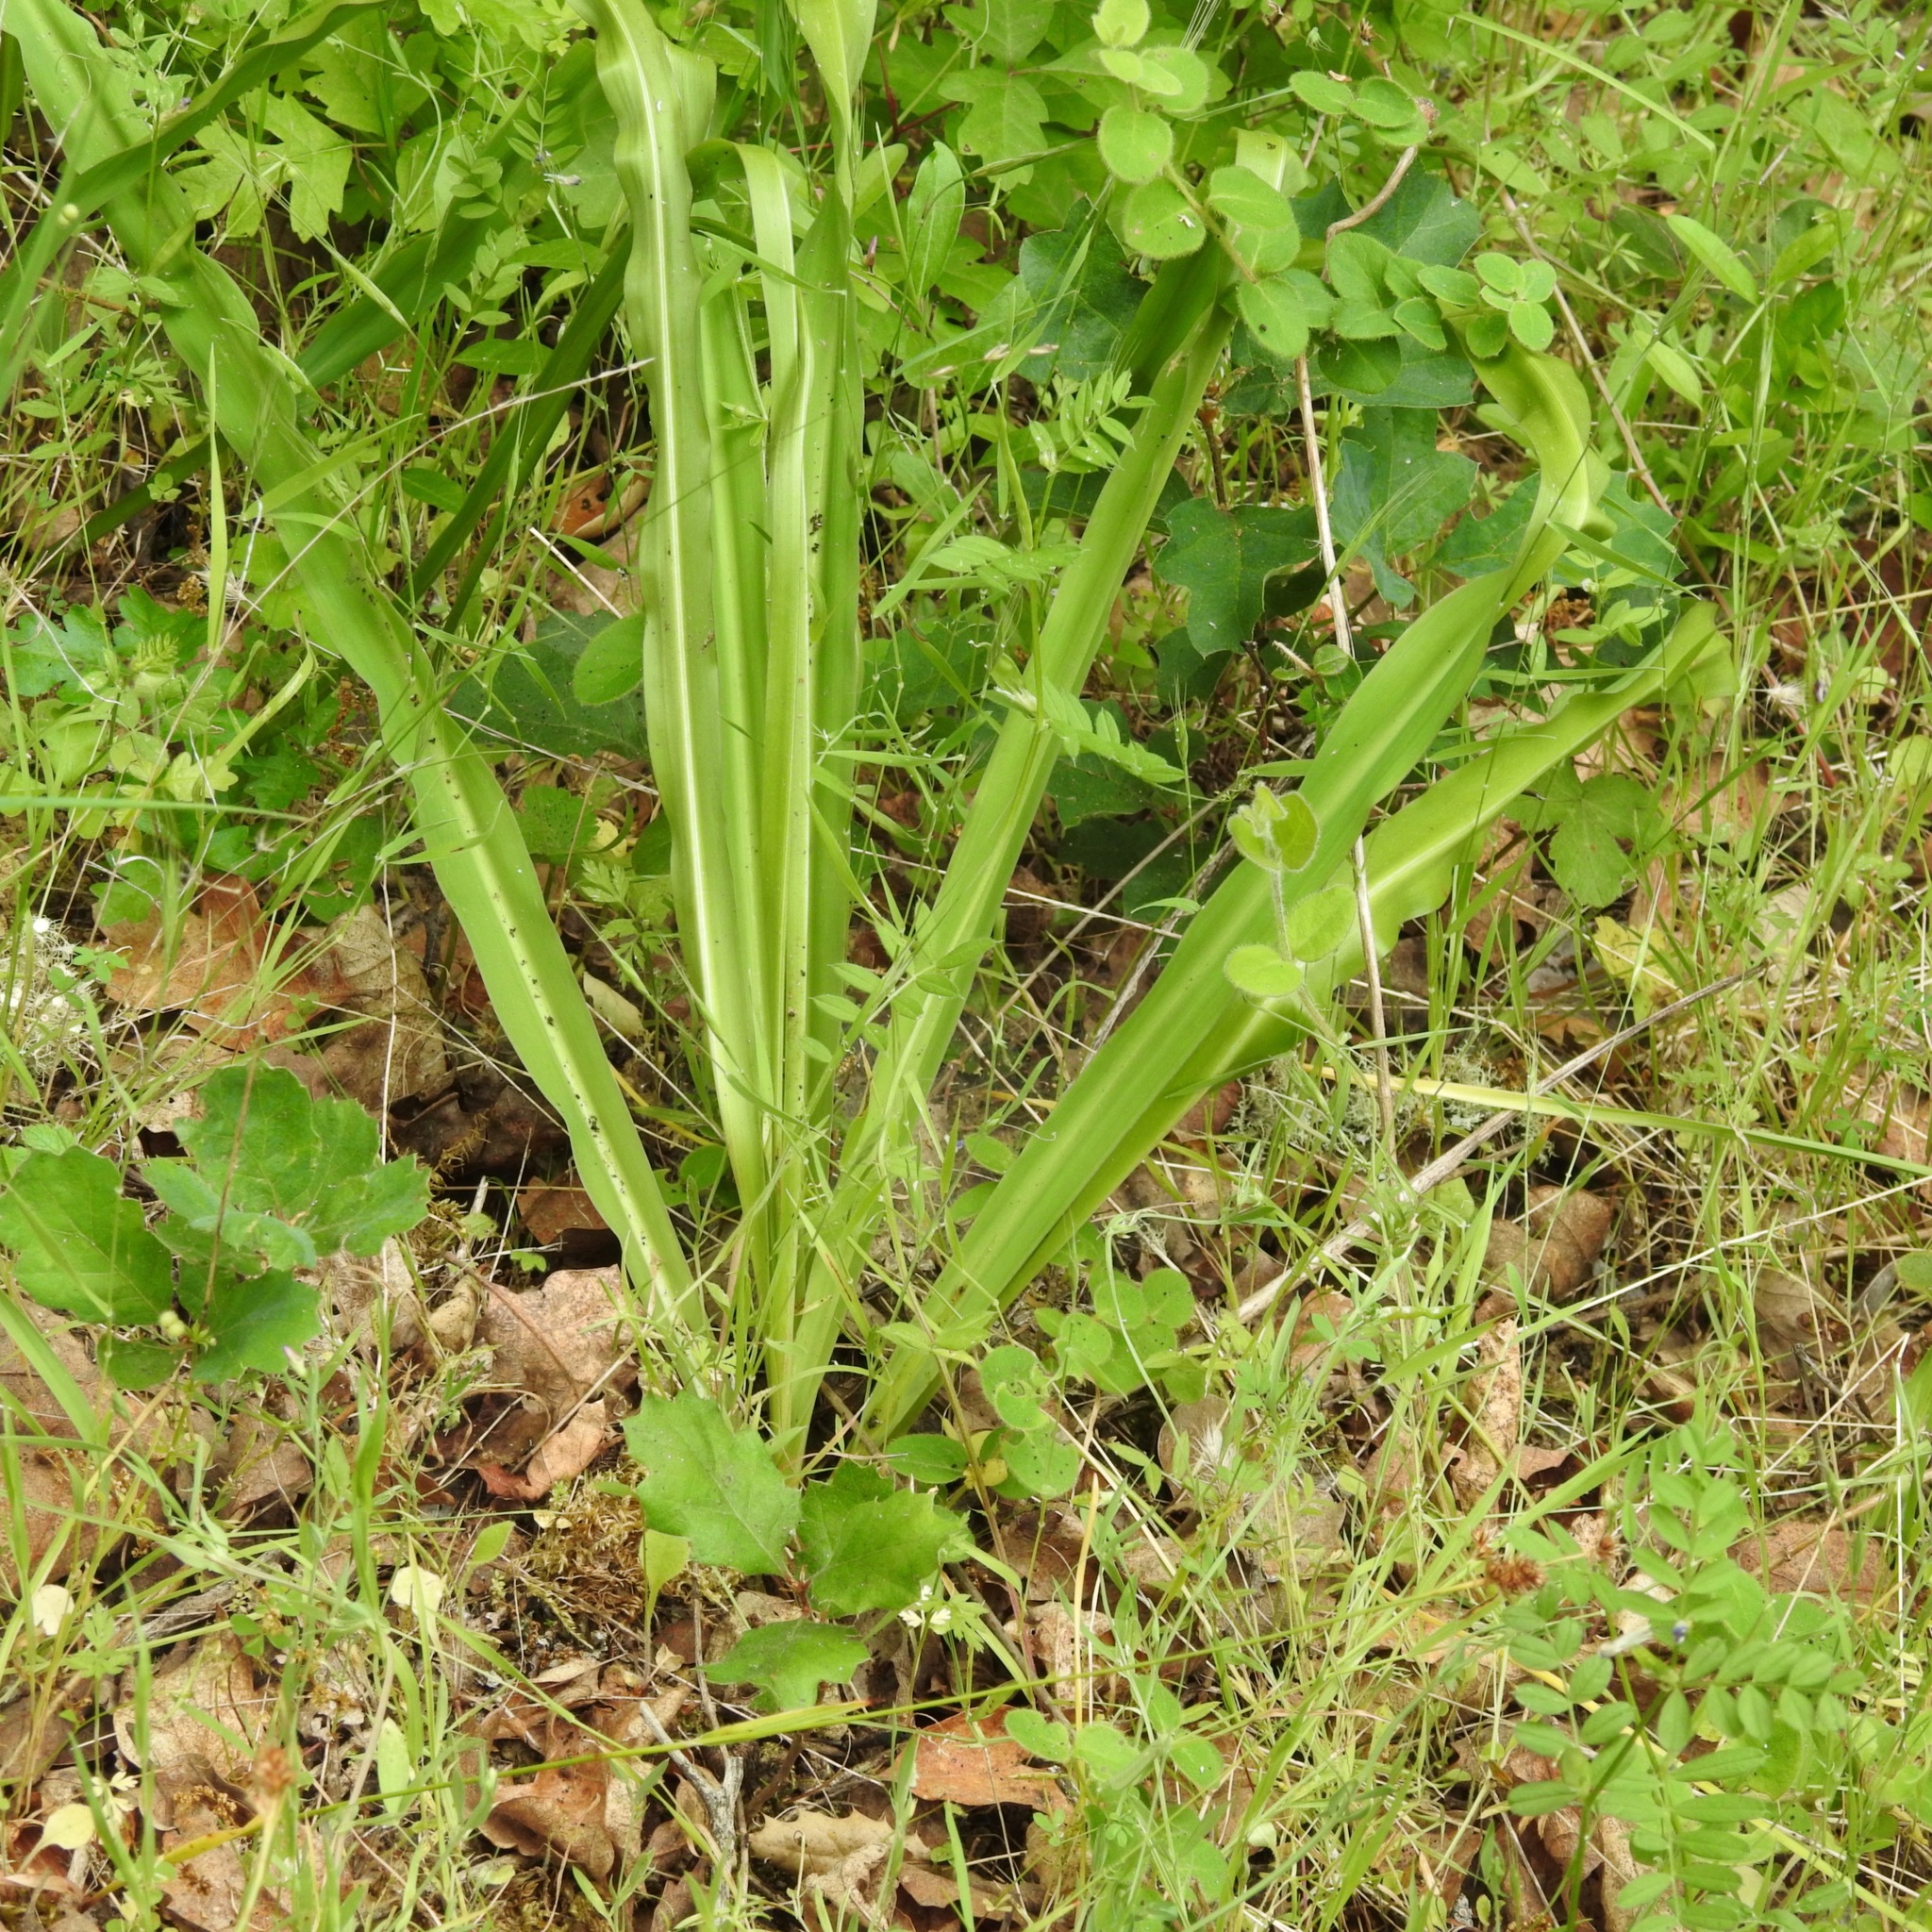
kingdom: Plantae
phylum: Tracheophyta
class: Liliopsida
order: Asparagales
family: Asparagaceae
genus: Chlorogalum
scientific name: Chlorogalum pomeridianum
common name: Amole
